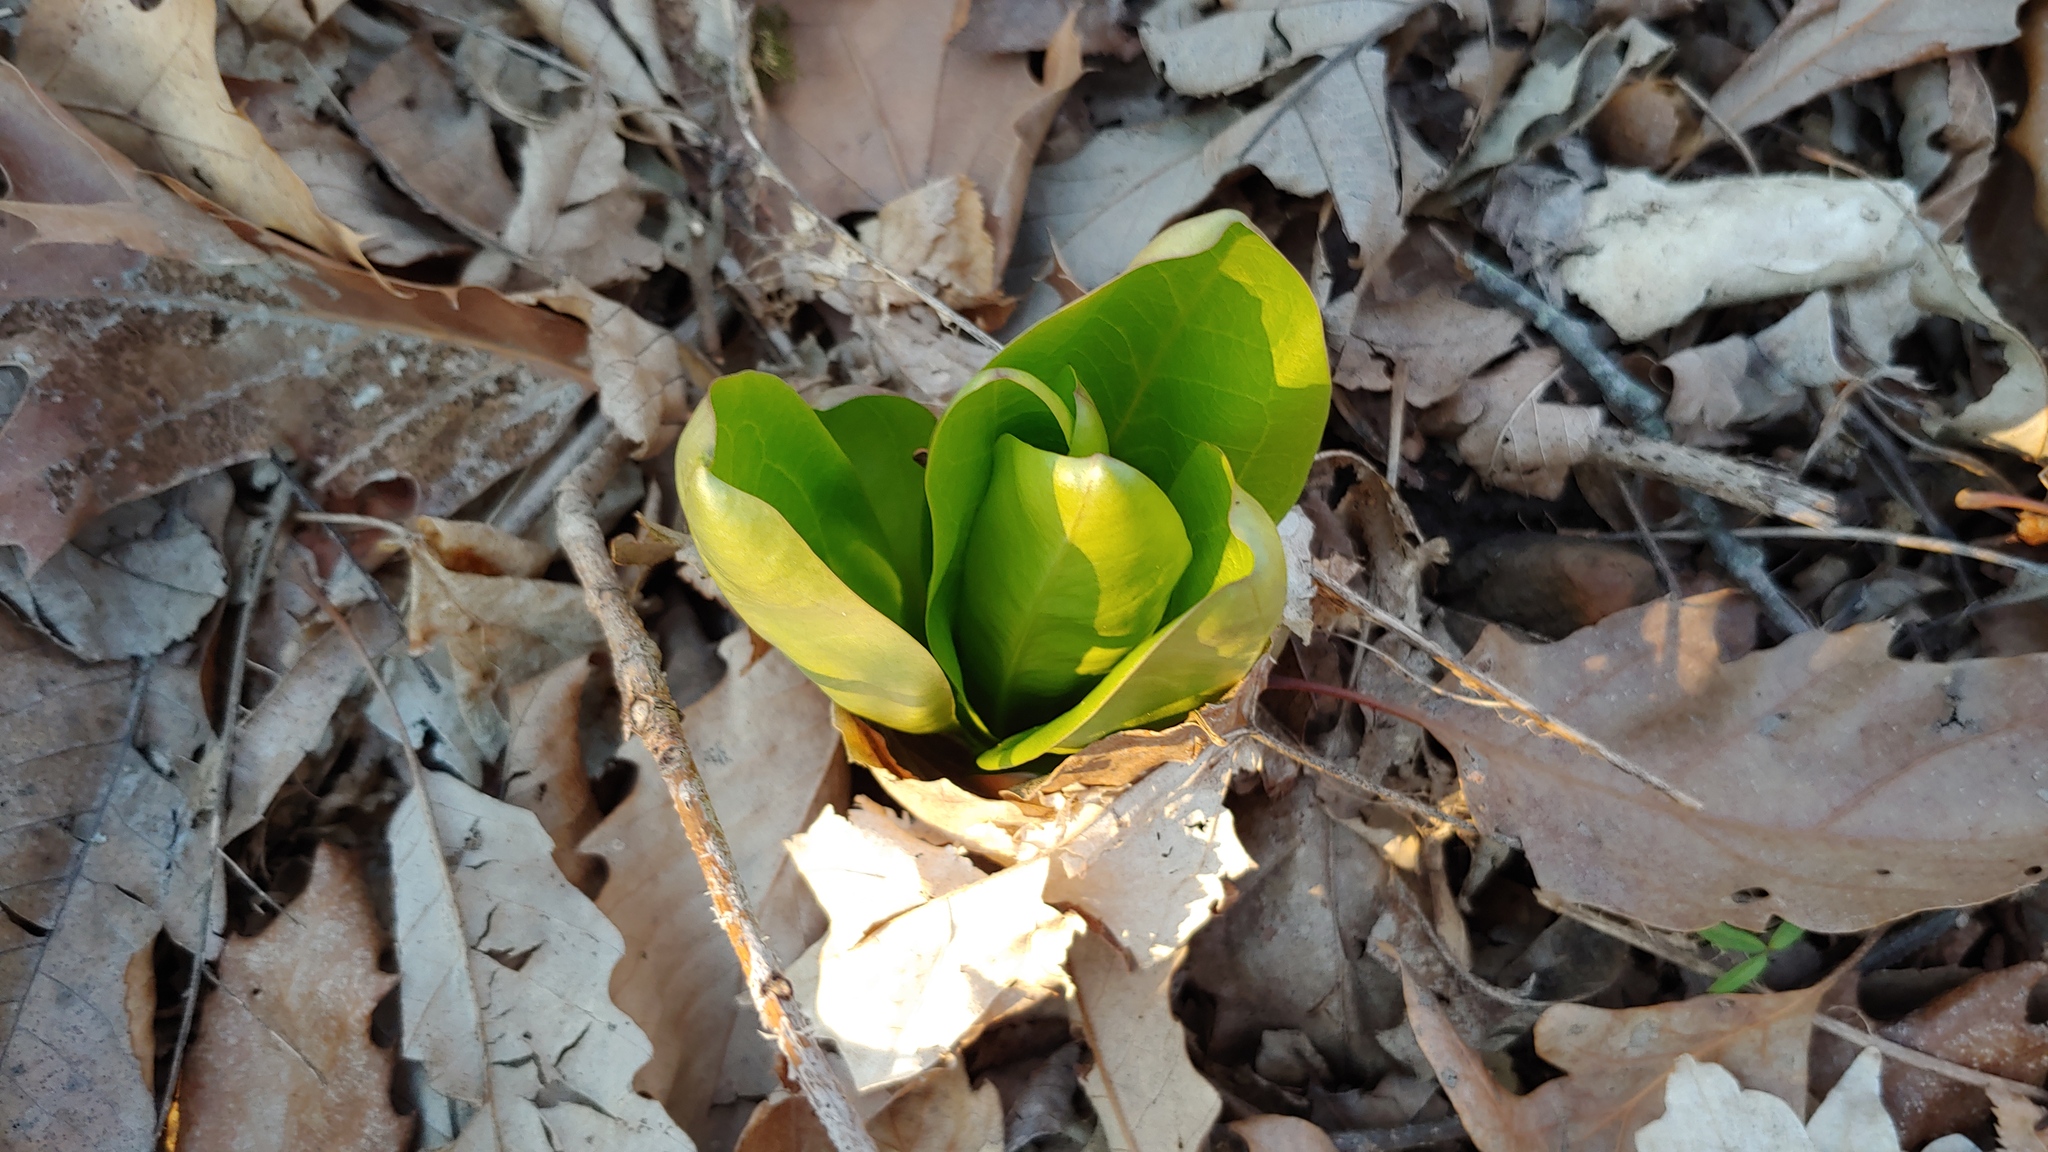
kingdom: Plantae
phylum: Tracheophyta
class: Magnoliopsida
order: Gentianales
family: Gentianaceae
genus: Frasera
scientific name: Frasera caroliniensis
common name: American columbo
